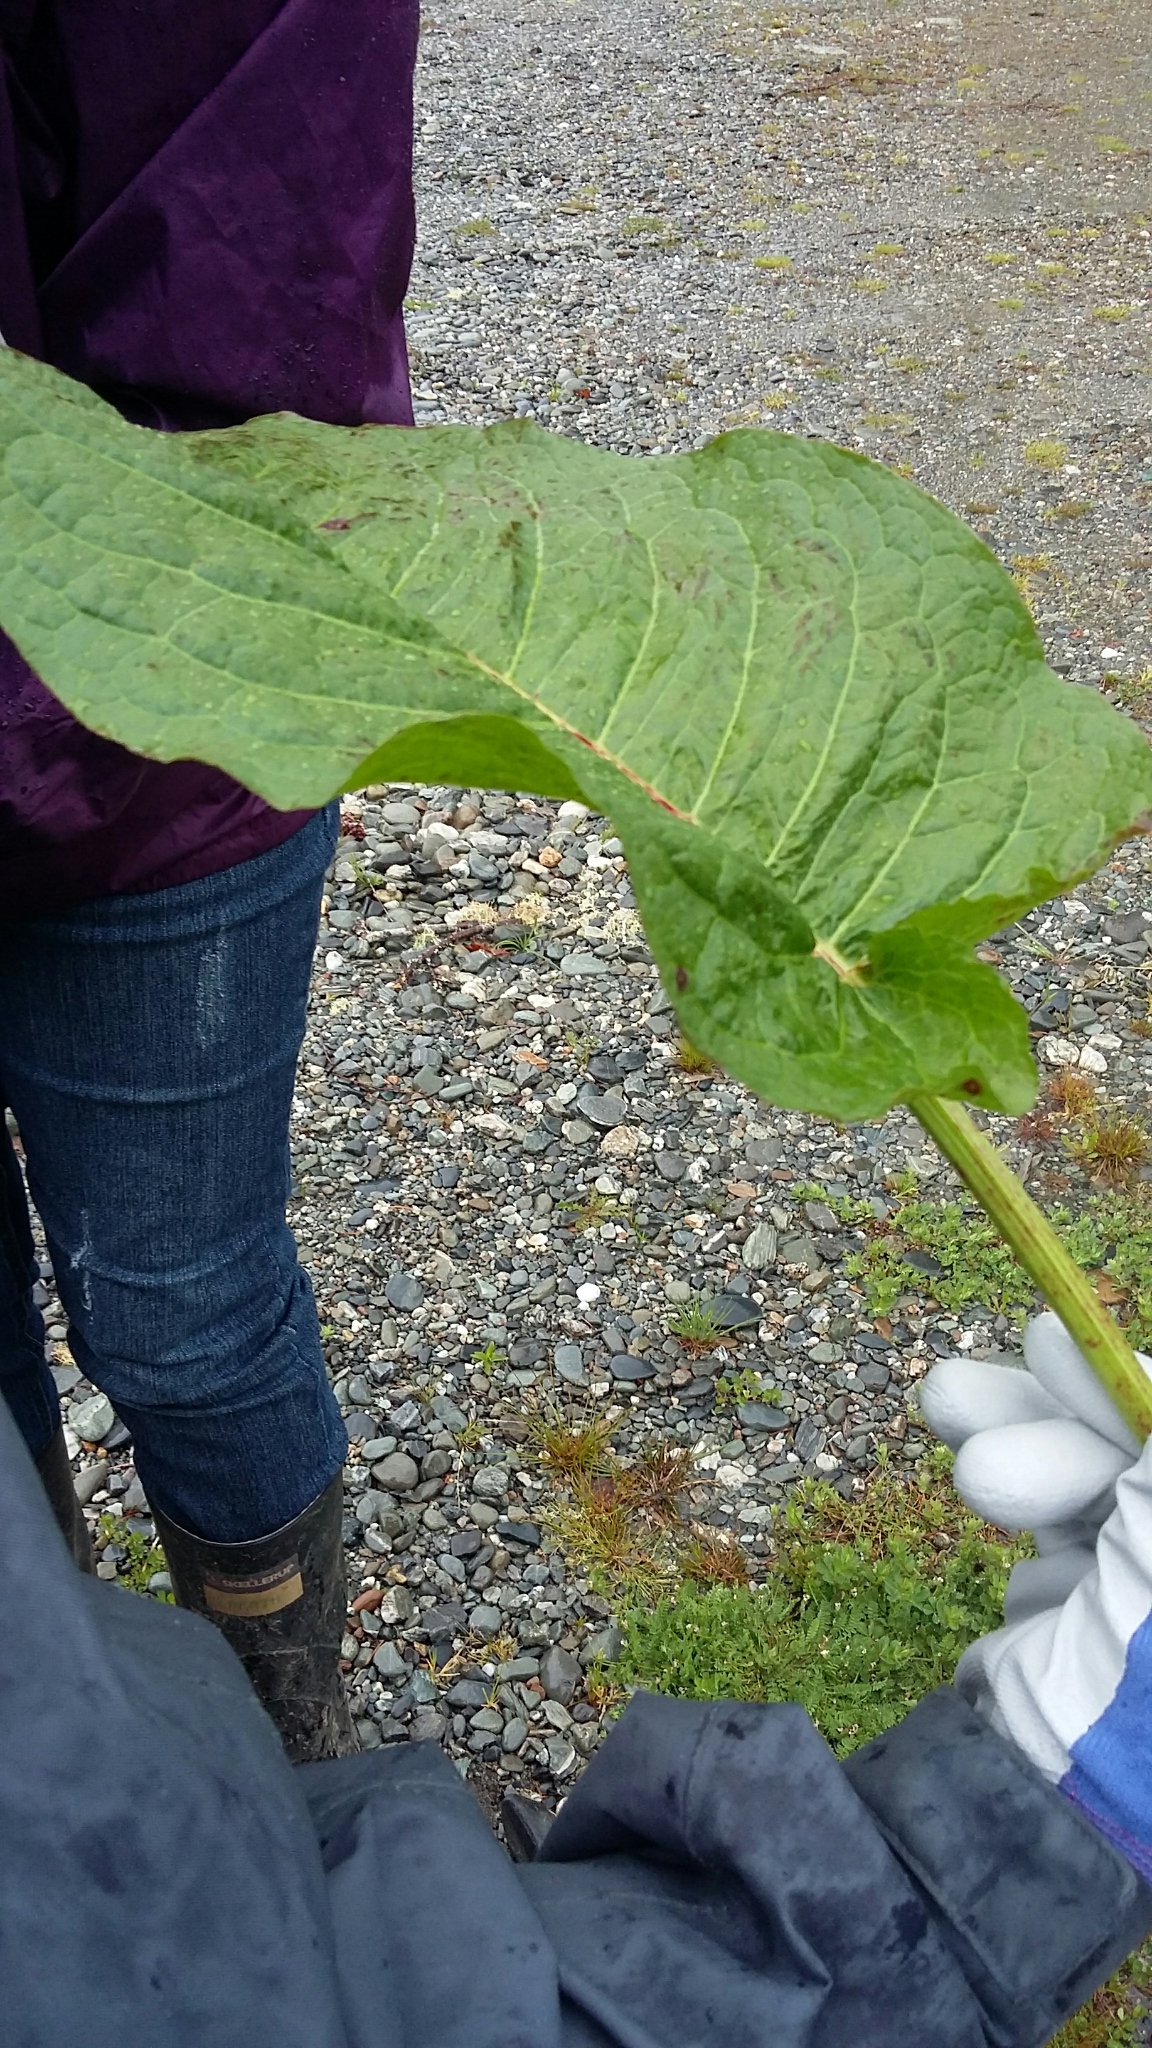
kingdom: Plantae
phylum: Tracheophyta
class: Magnoliopsida
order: Caryophyllales
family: Polygonaceae
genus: Rumex
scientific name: Rumex obtusifolius
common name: Bitter dock
